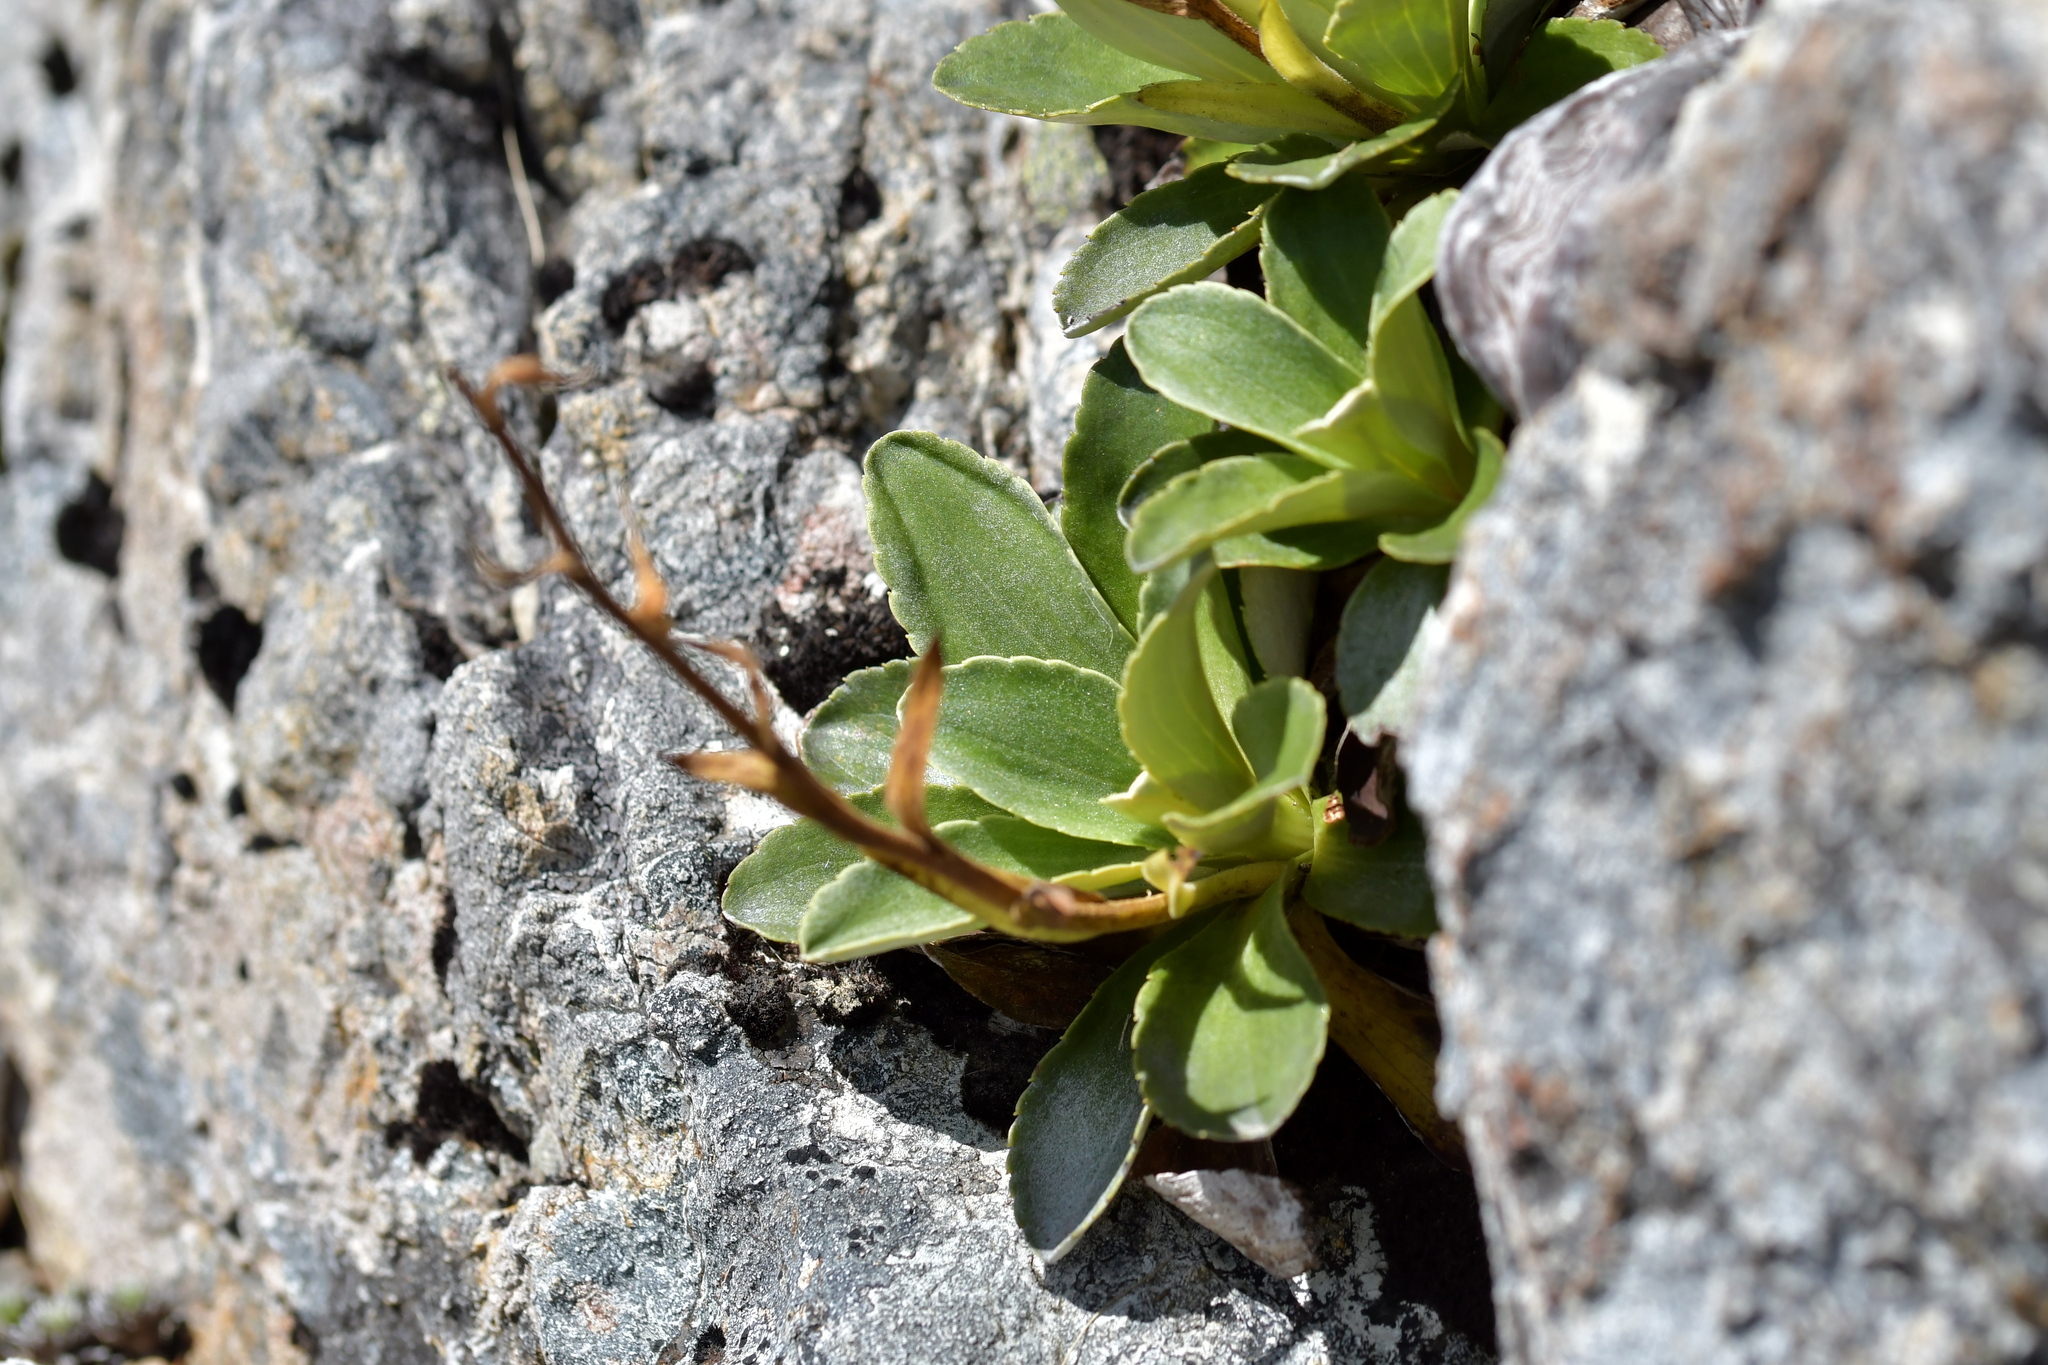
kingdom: Plantae
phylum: Tracheophyta
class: Magnoliopsida
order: Asterales
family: Asteraceae
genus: Celmisia
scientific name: Celmisia hieraciifolia
